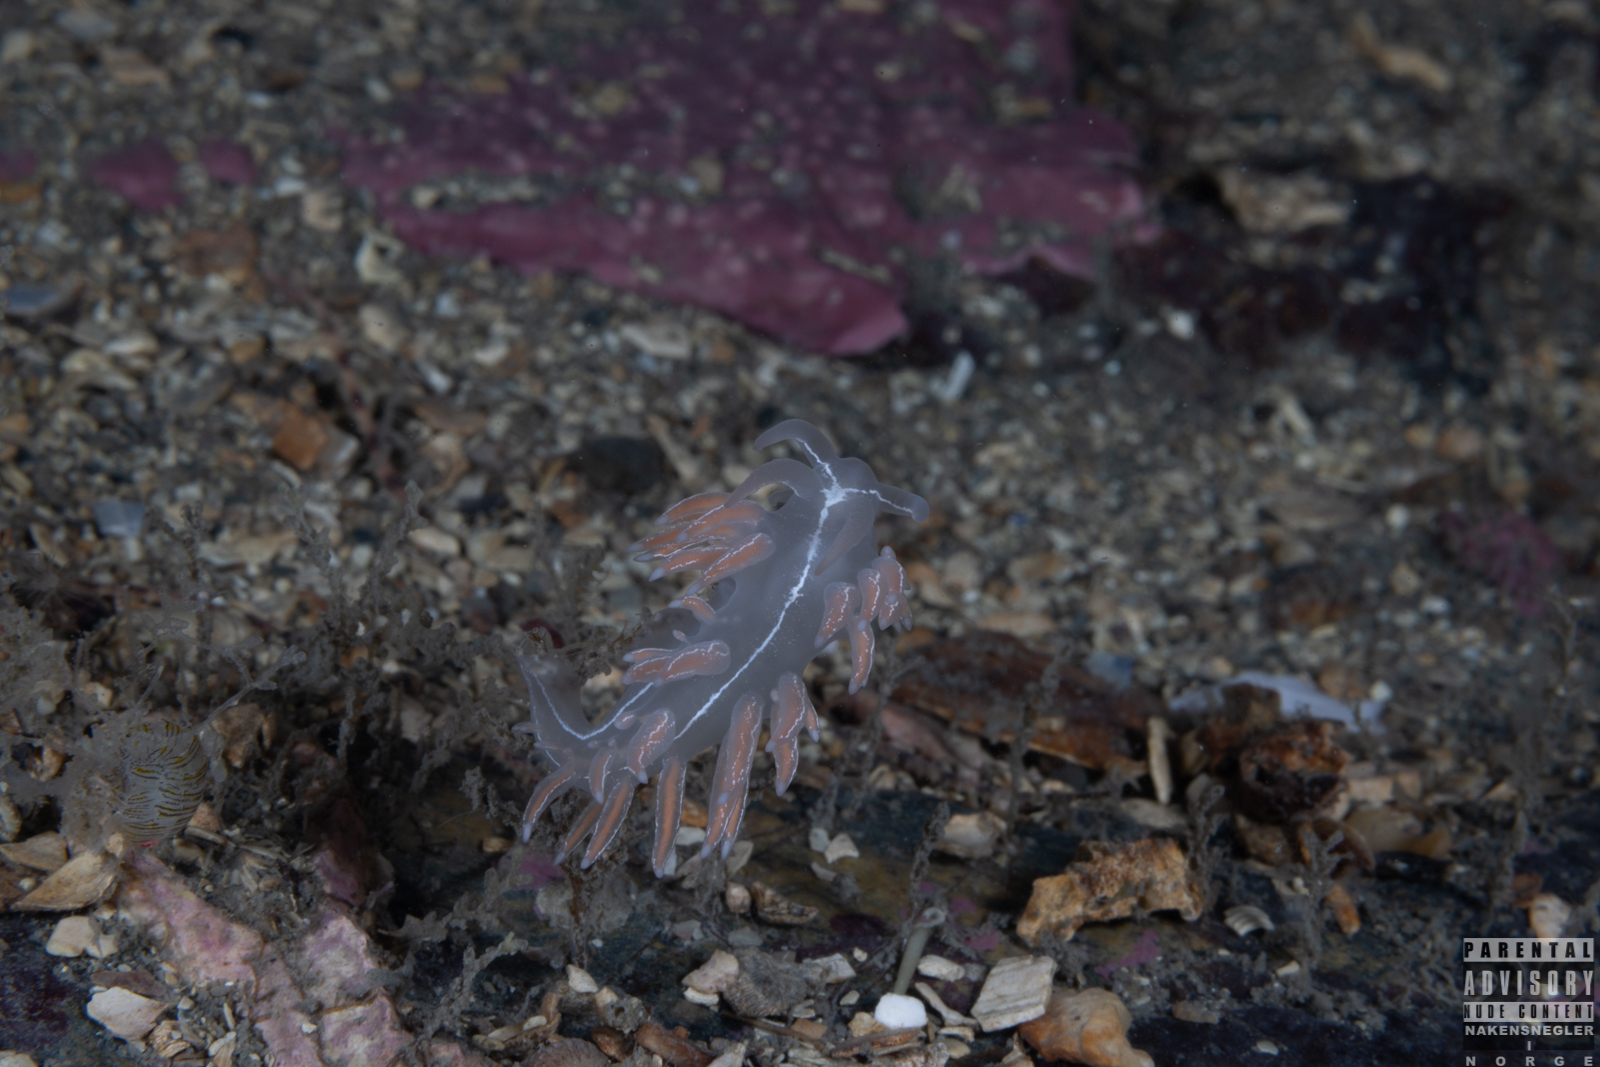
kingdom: Animalia
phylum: Mollusca
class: Gastropoda
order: Nudibranchia
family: Coryphellidae
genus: Coryphella
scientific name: Coryphella chriskaugei
